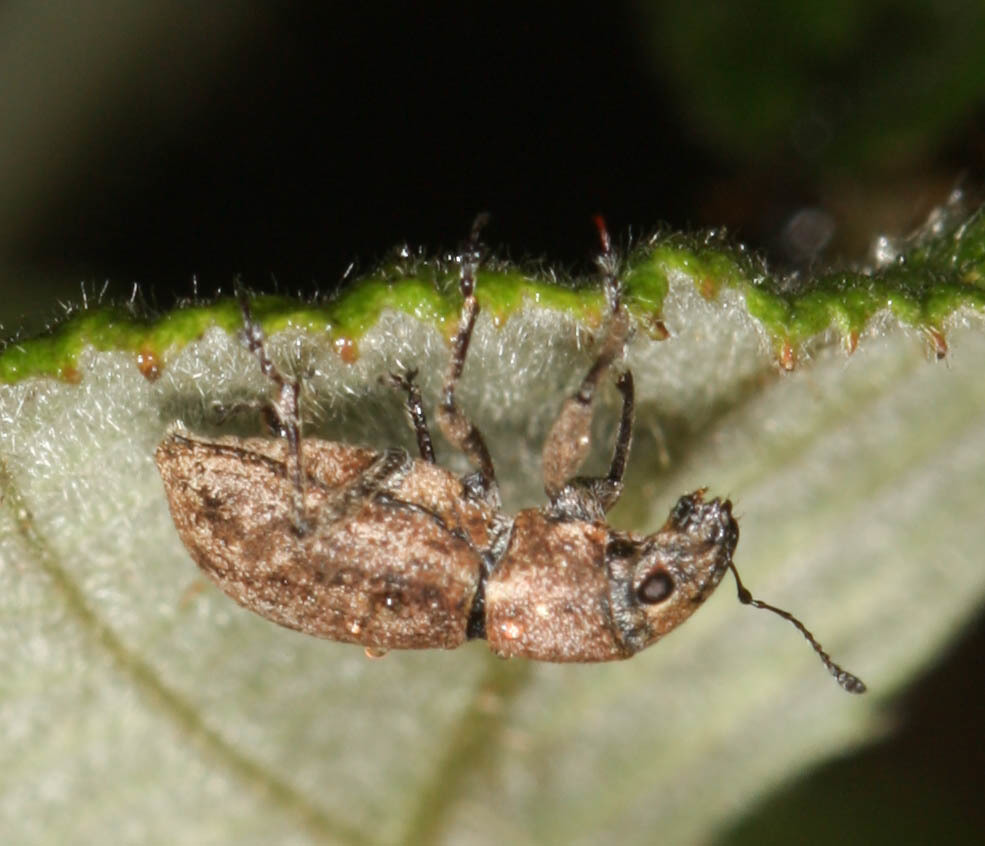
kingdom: Animalia
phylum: Arthropoda
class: Insecta
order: Coleoptera
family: Curculionidae
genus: Naupactus
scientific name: Naupactus cervinus
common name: Fuller rose beetle
